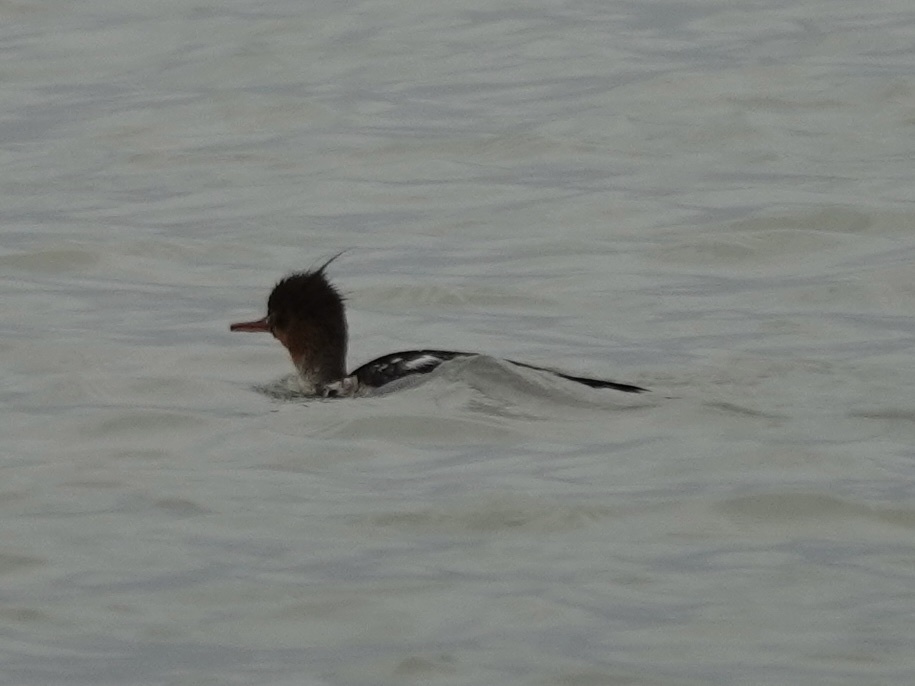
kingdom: Animalia
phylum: Chordata
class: Aves
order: Anseriformes
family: Anatidae
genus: Mergus
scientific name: Mergus serrator
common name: Red-breasted merganser
